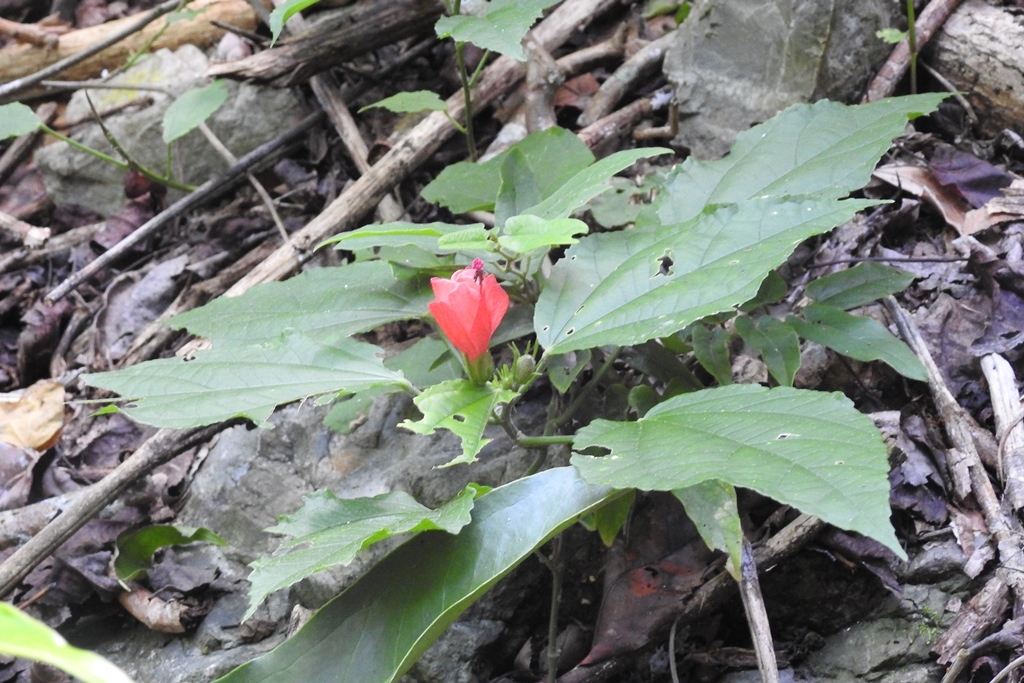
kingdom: Plantae
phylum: Tracheophyta
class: Magnoliopsida
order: Malvales
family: Malvaceae
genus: Malvaviscus
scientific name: Malvaviscus arboreus
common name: Wax mallow
